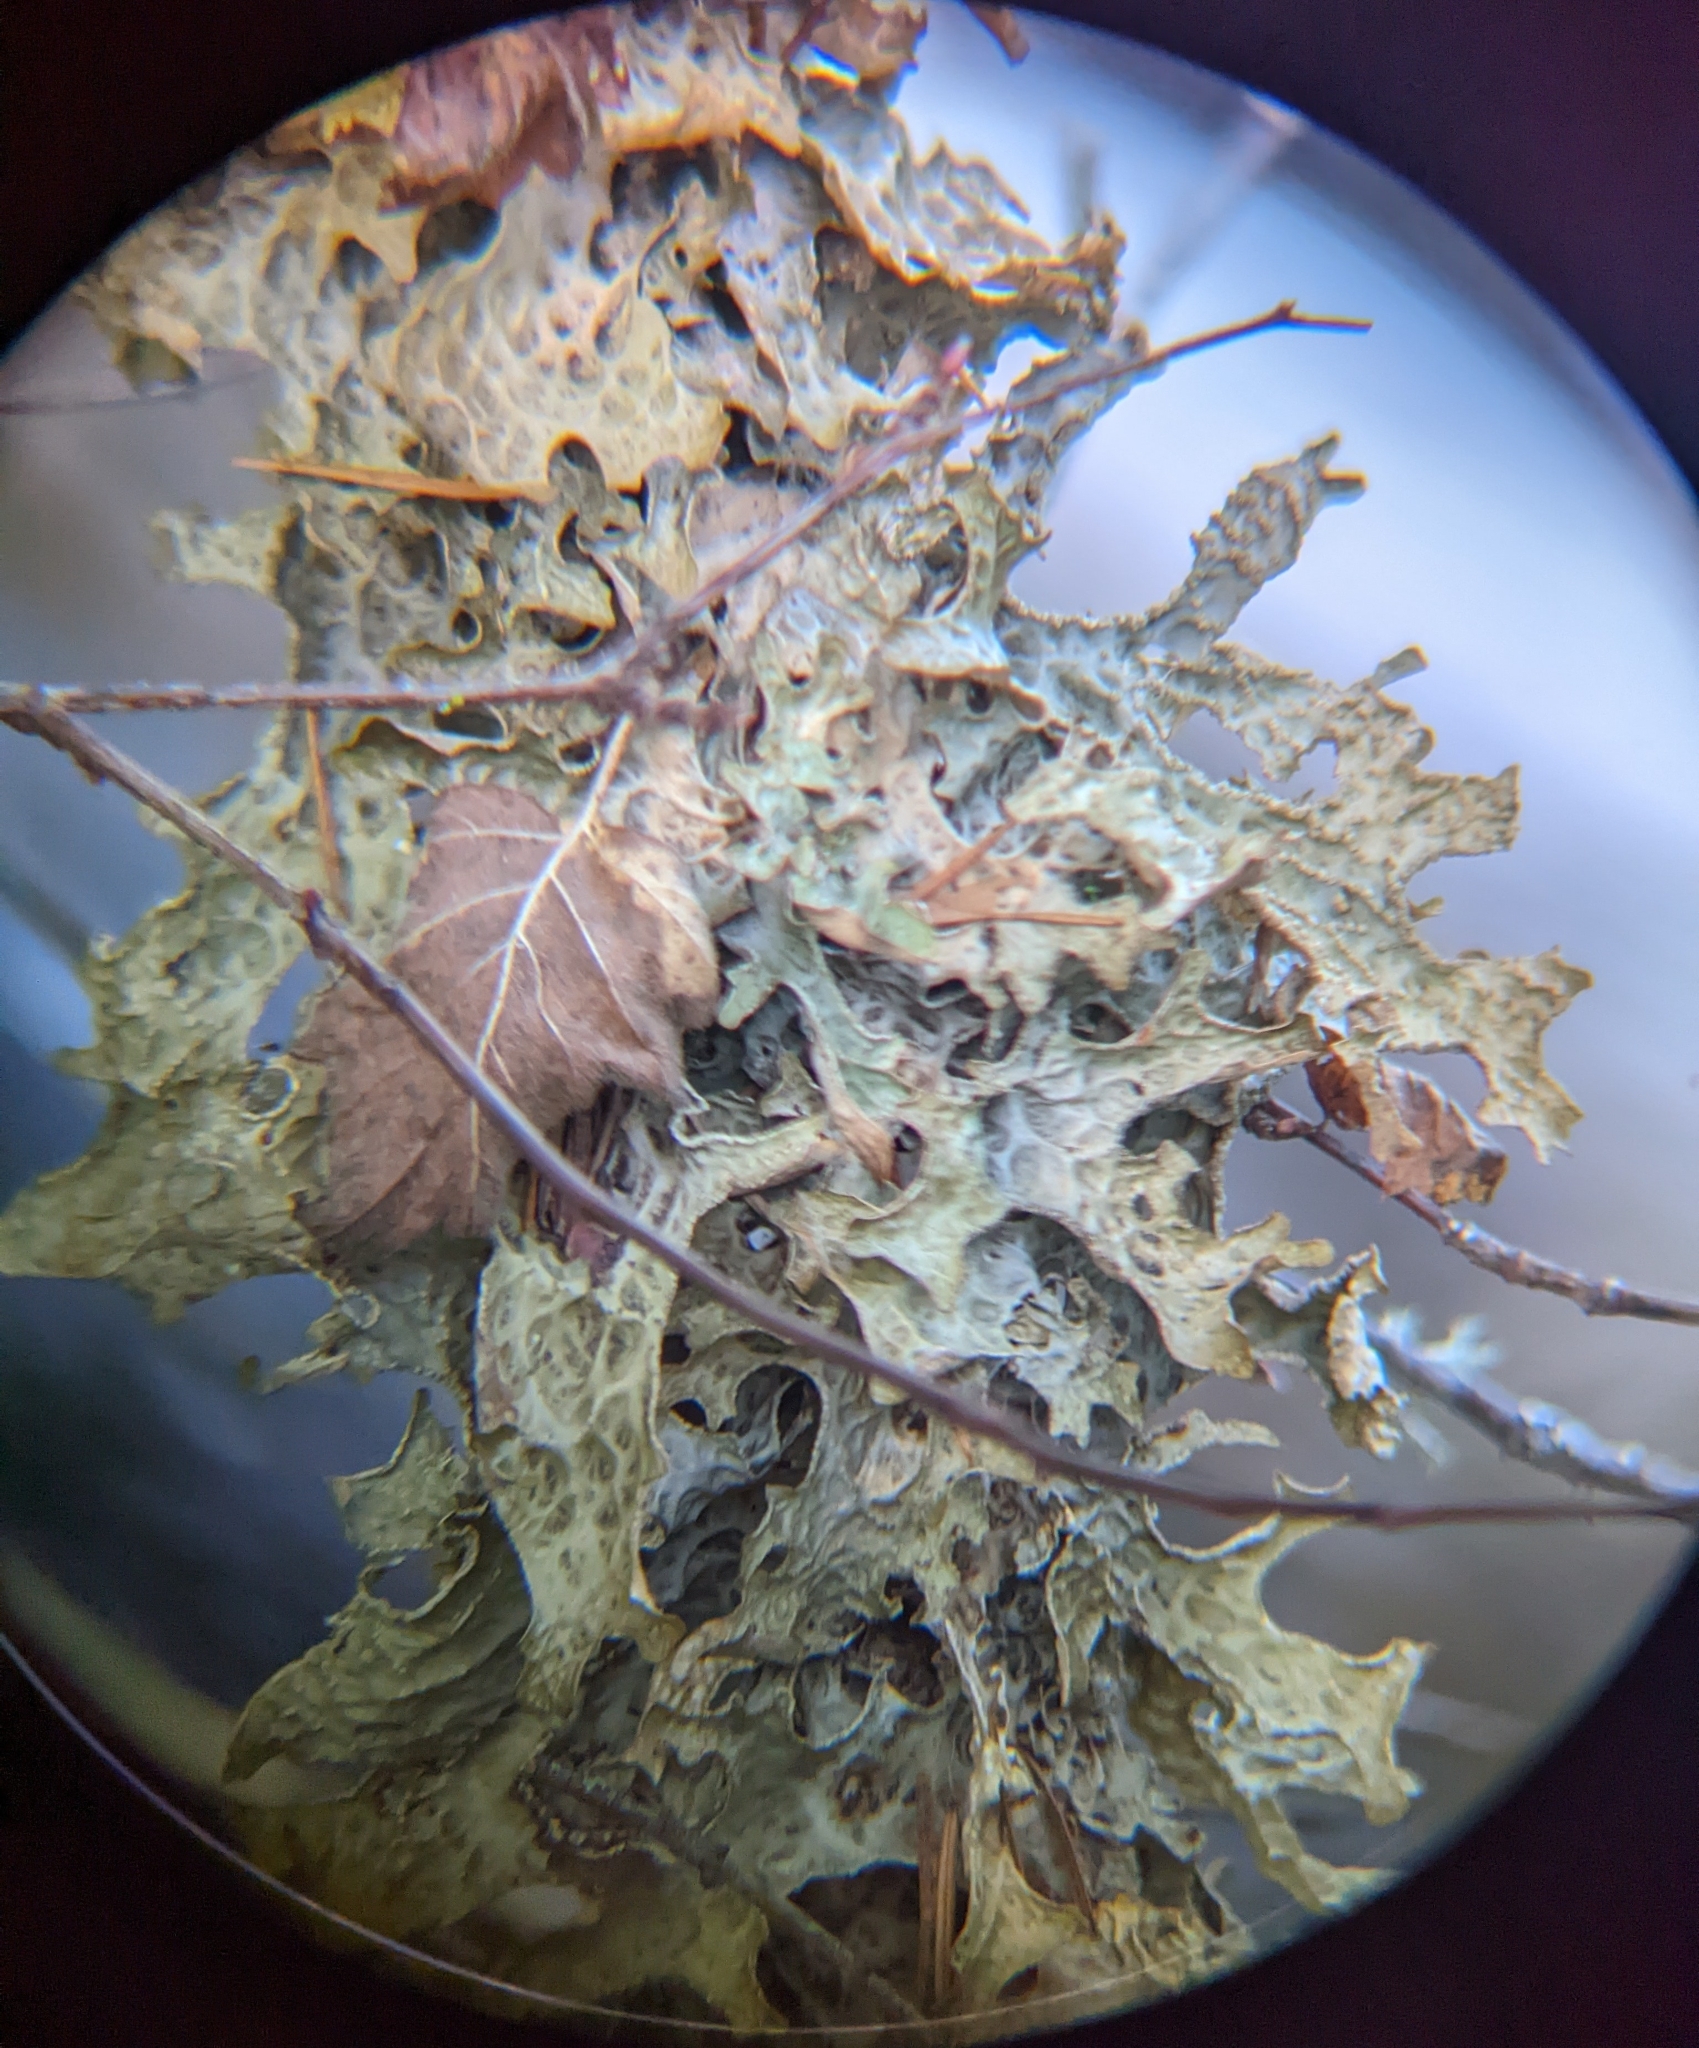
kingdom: Fungi
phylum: Ascomycota
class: Lecanoromycetes
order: Peltigerales
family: Lobariaceae
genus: Lobaria
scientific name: Lobaria pulmonaria
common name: Lungwort
